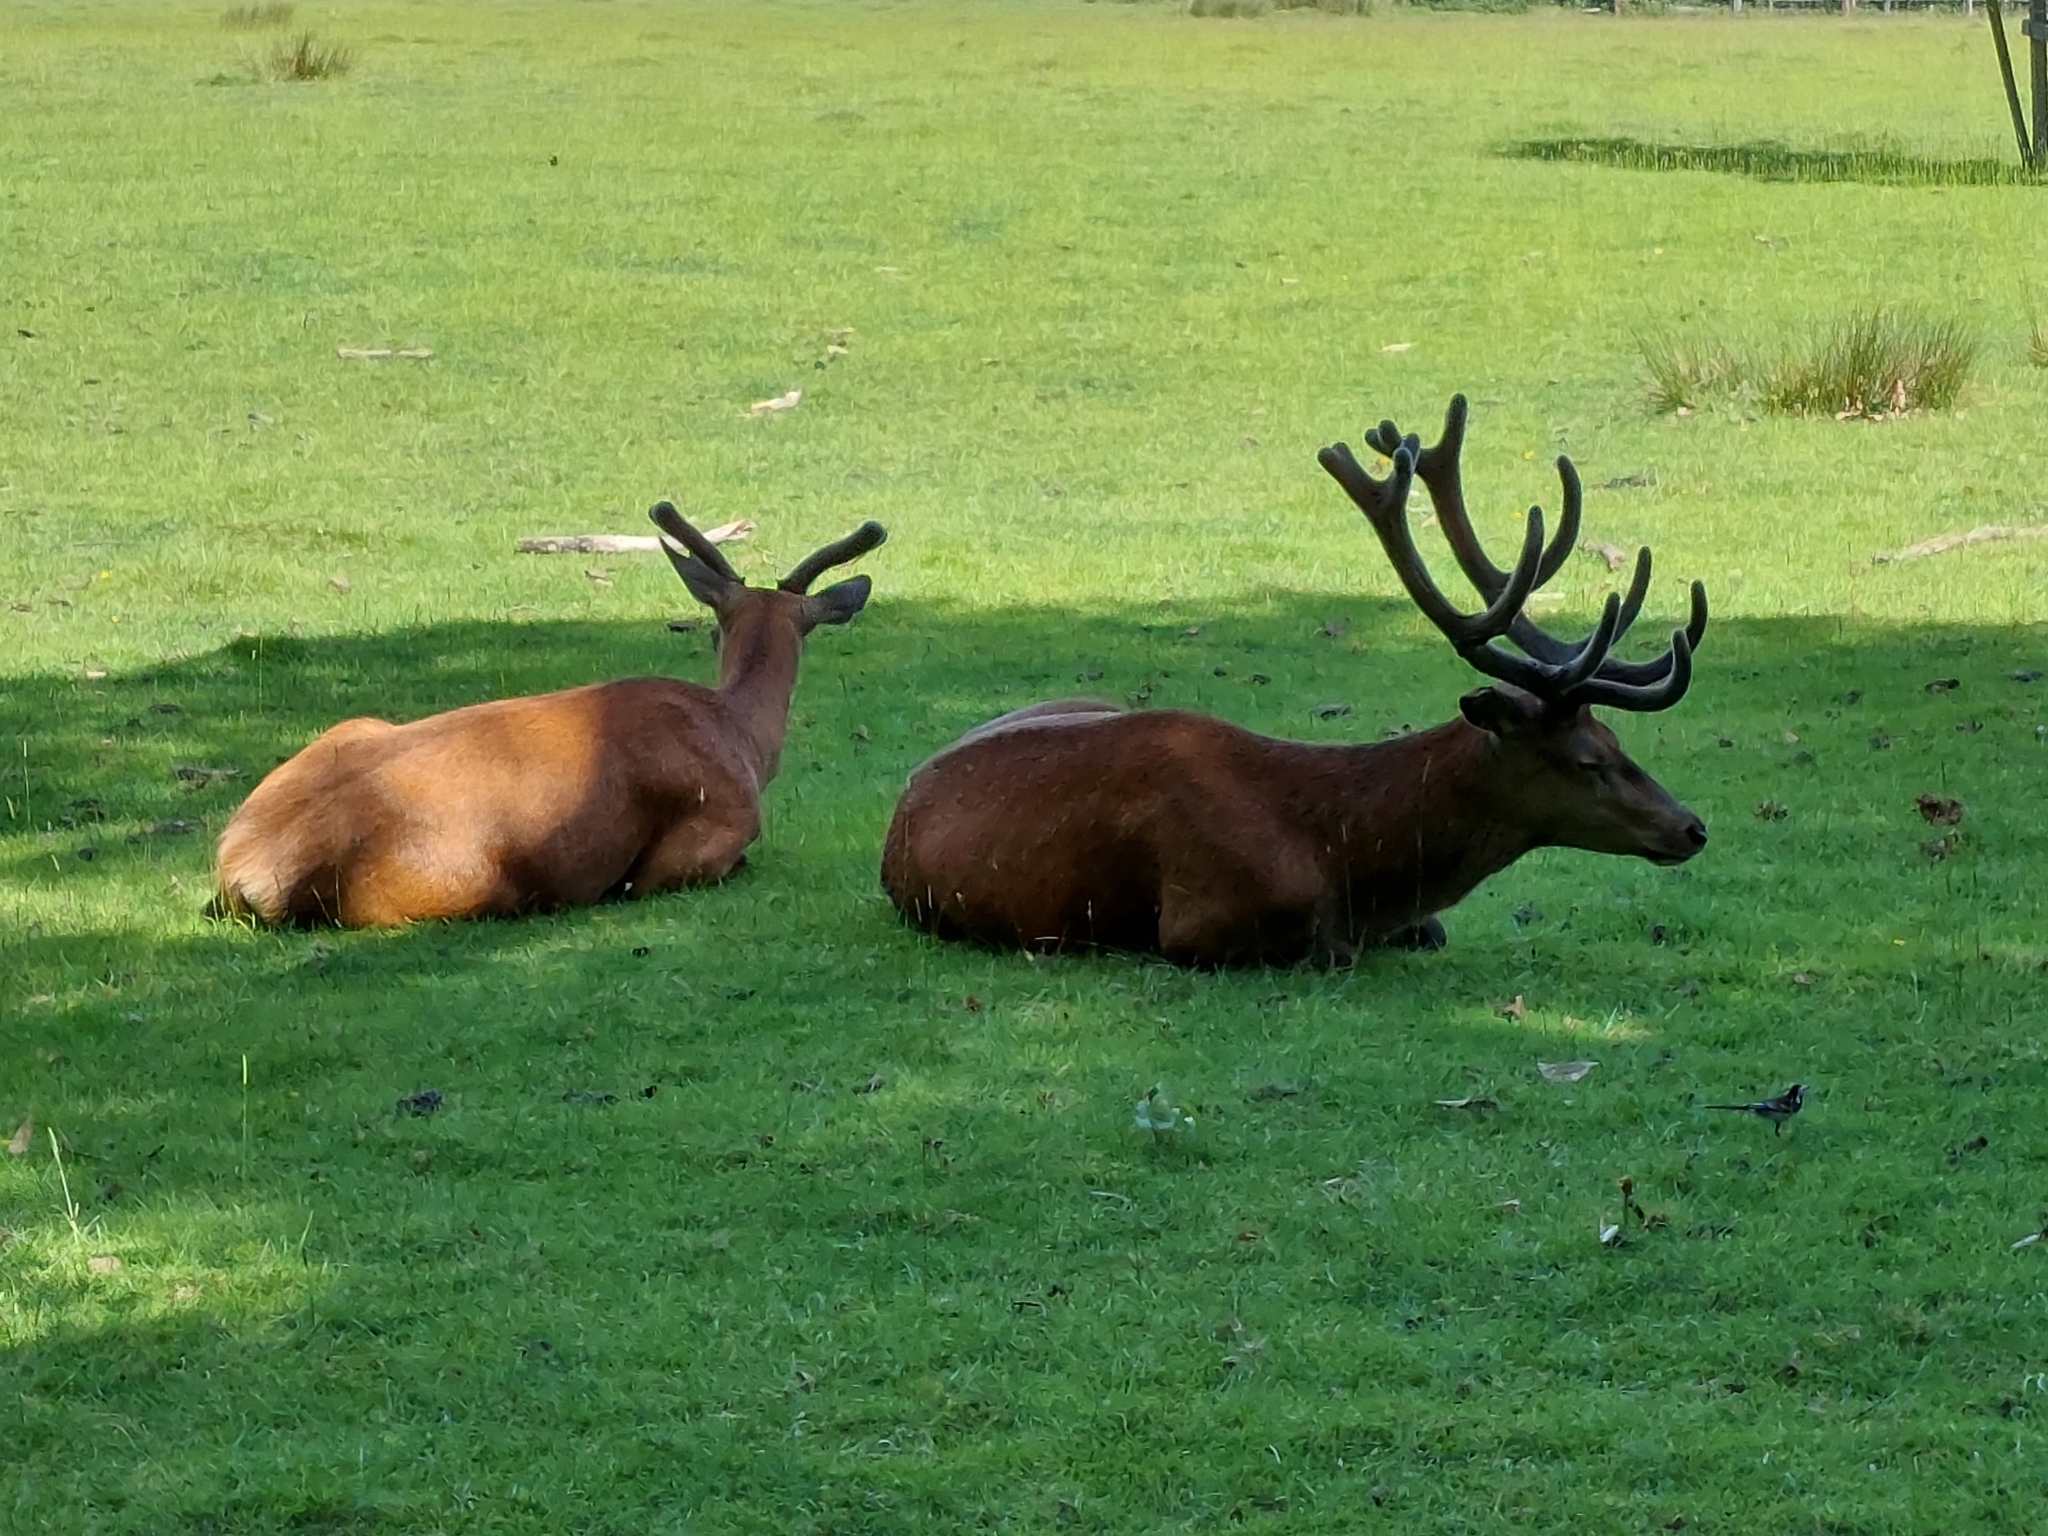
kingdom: Animalia
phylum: Chordata
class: Mammalia
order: Artiodactyla
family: Cervidae
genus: Cervus
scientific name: Cervus elaphus
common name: Red deer
